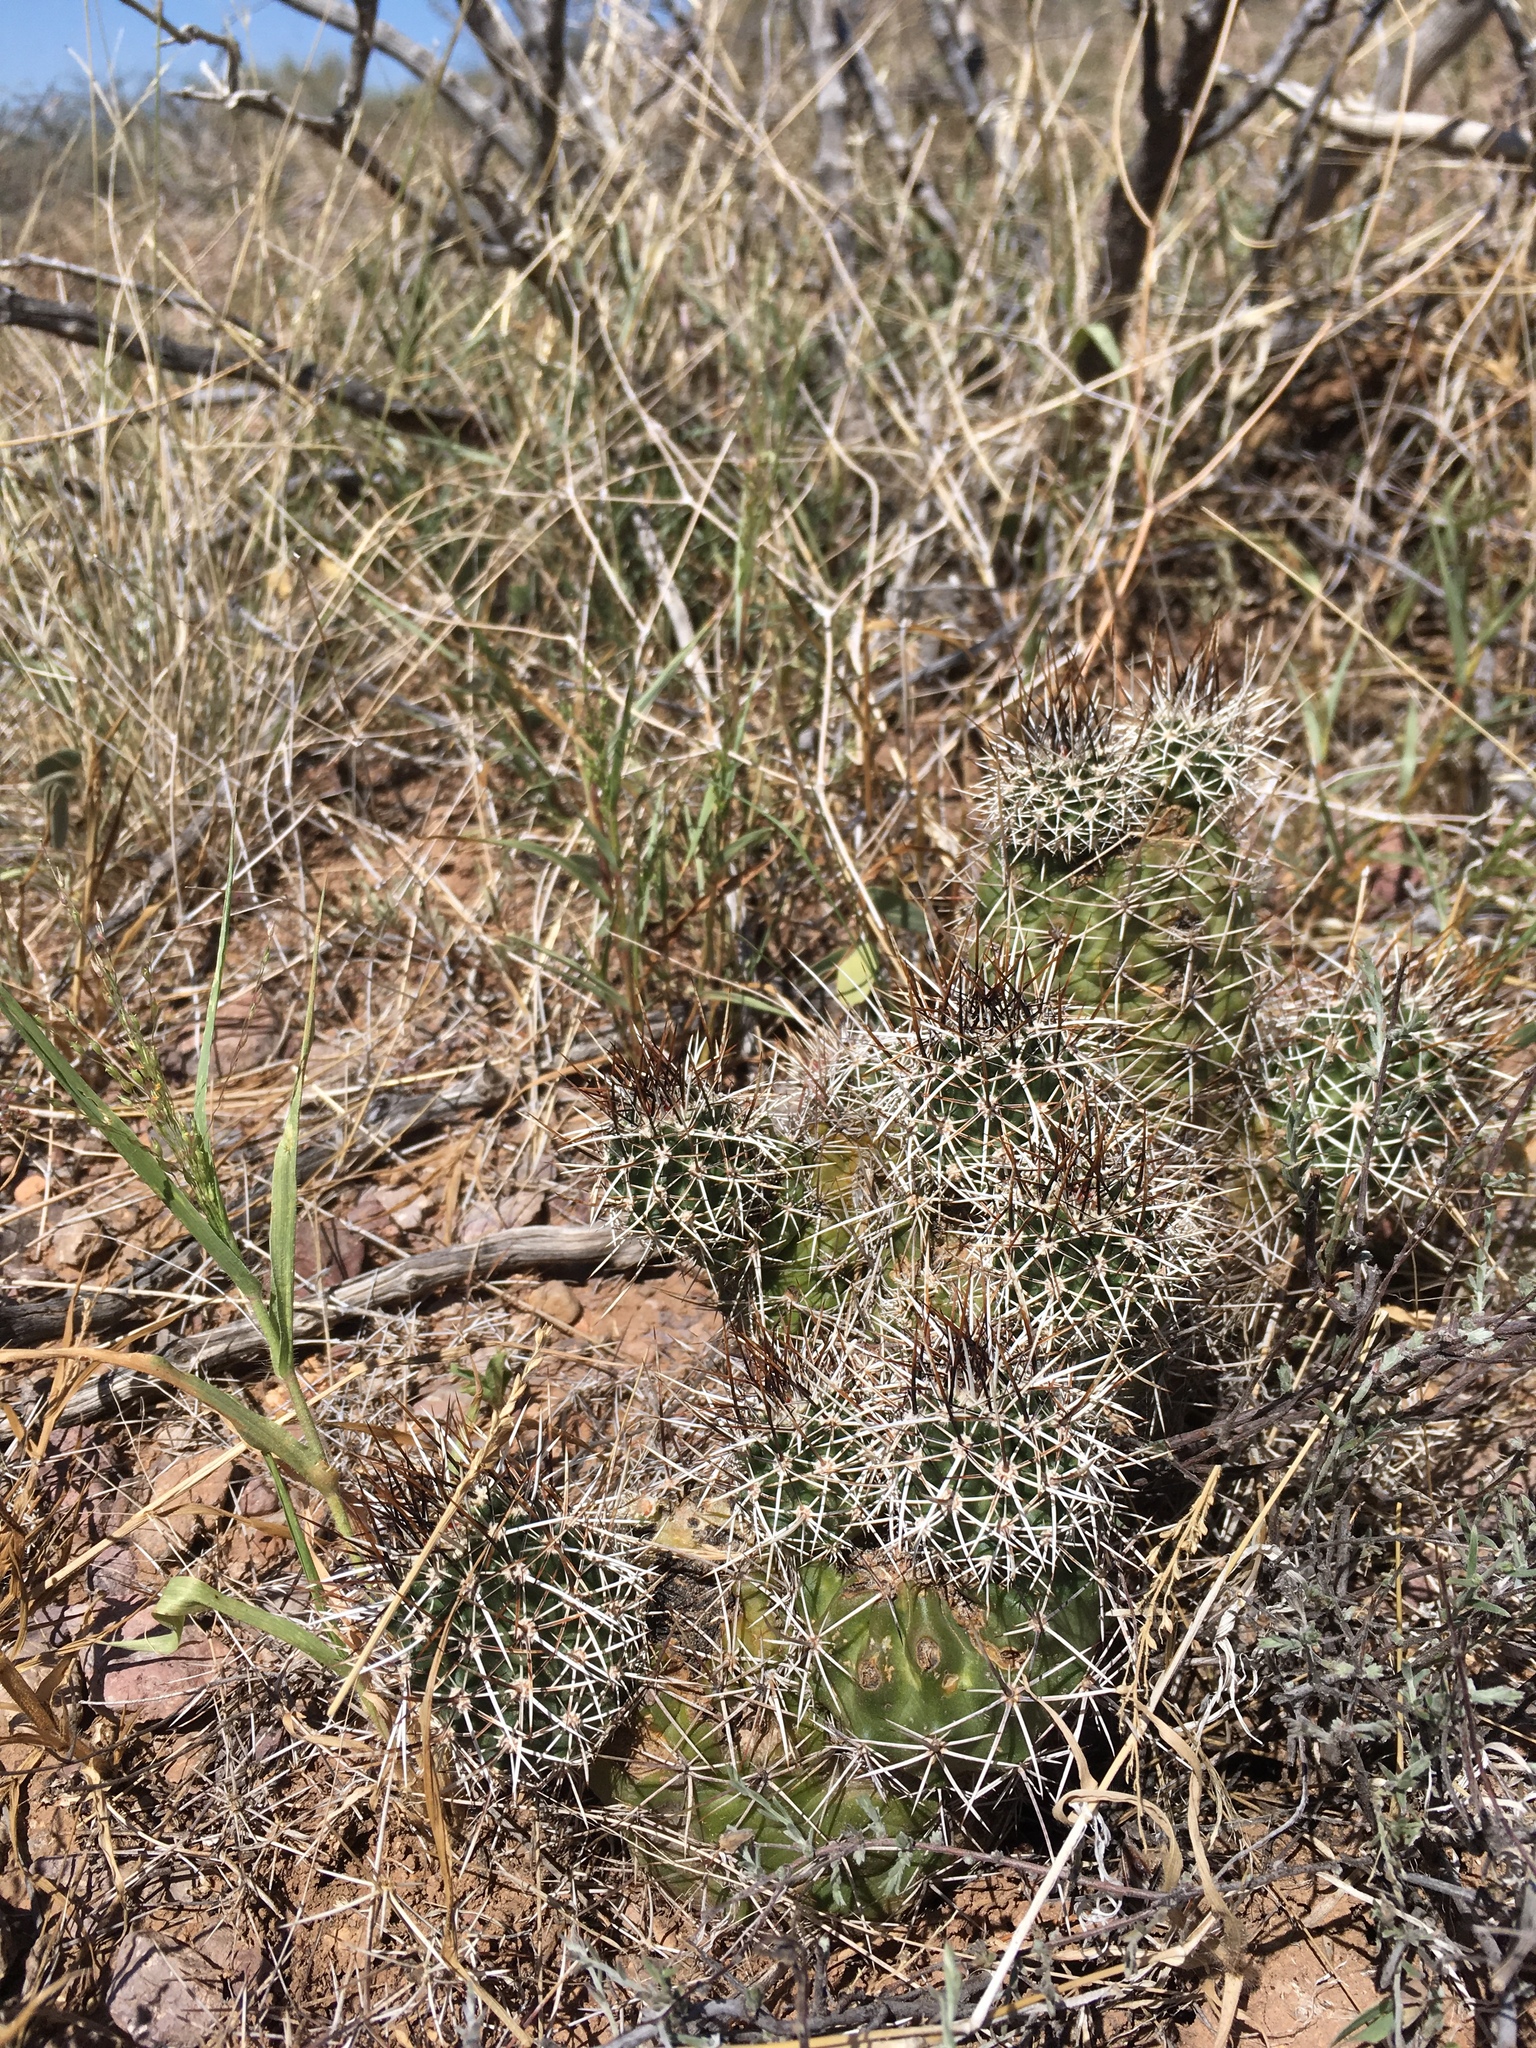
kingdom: Plantae
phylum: Tracheophyta
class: Magnoliopsida
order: Caryophyllales
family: Cactaceae
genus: Echinocereus
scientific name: Echinocereus fendleri
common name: Fendler's hedgehog cactus
